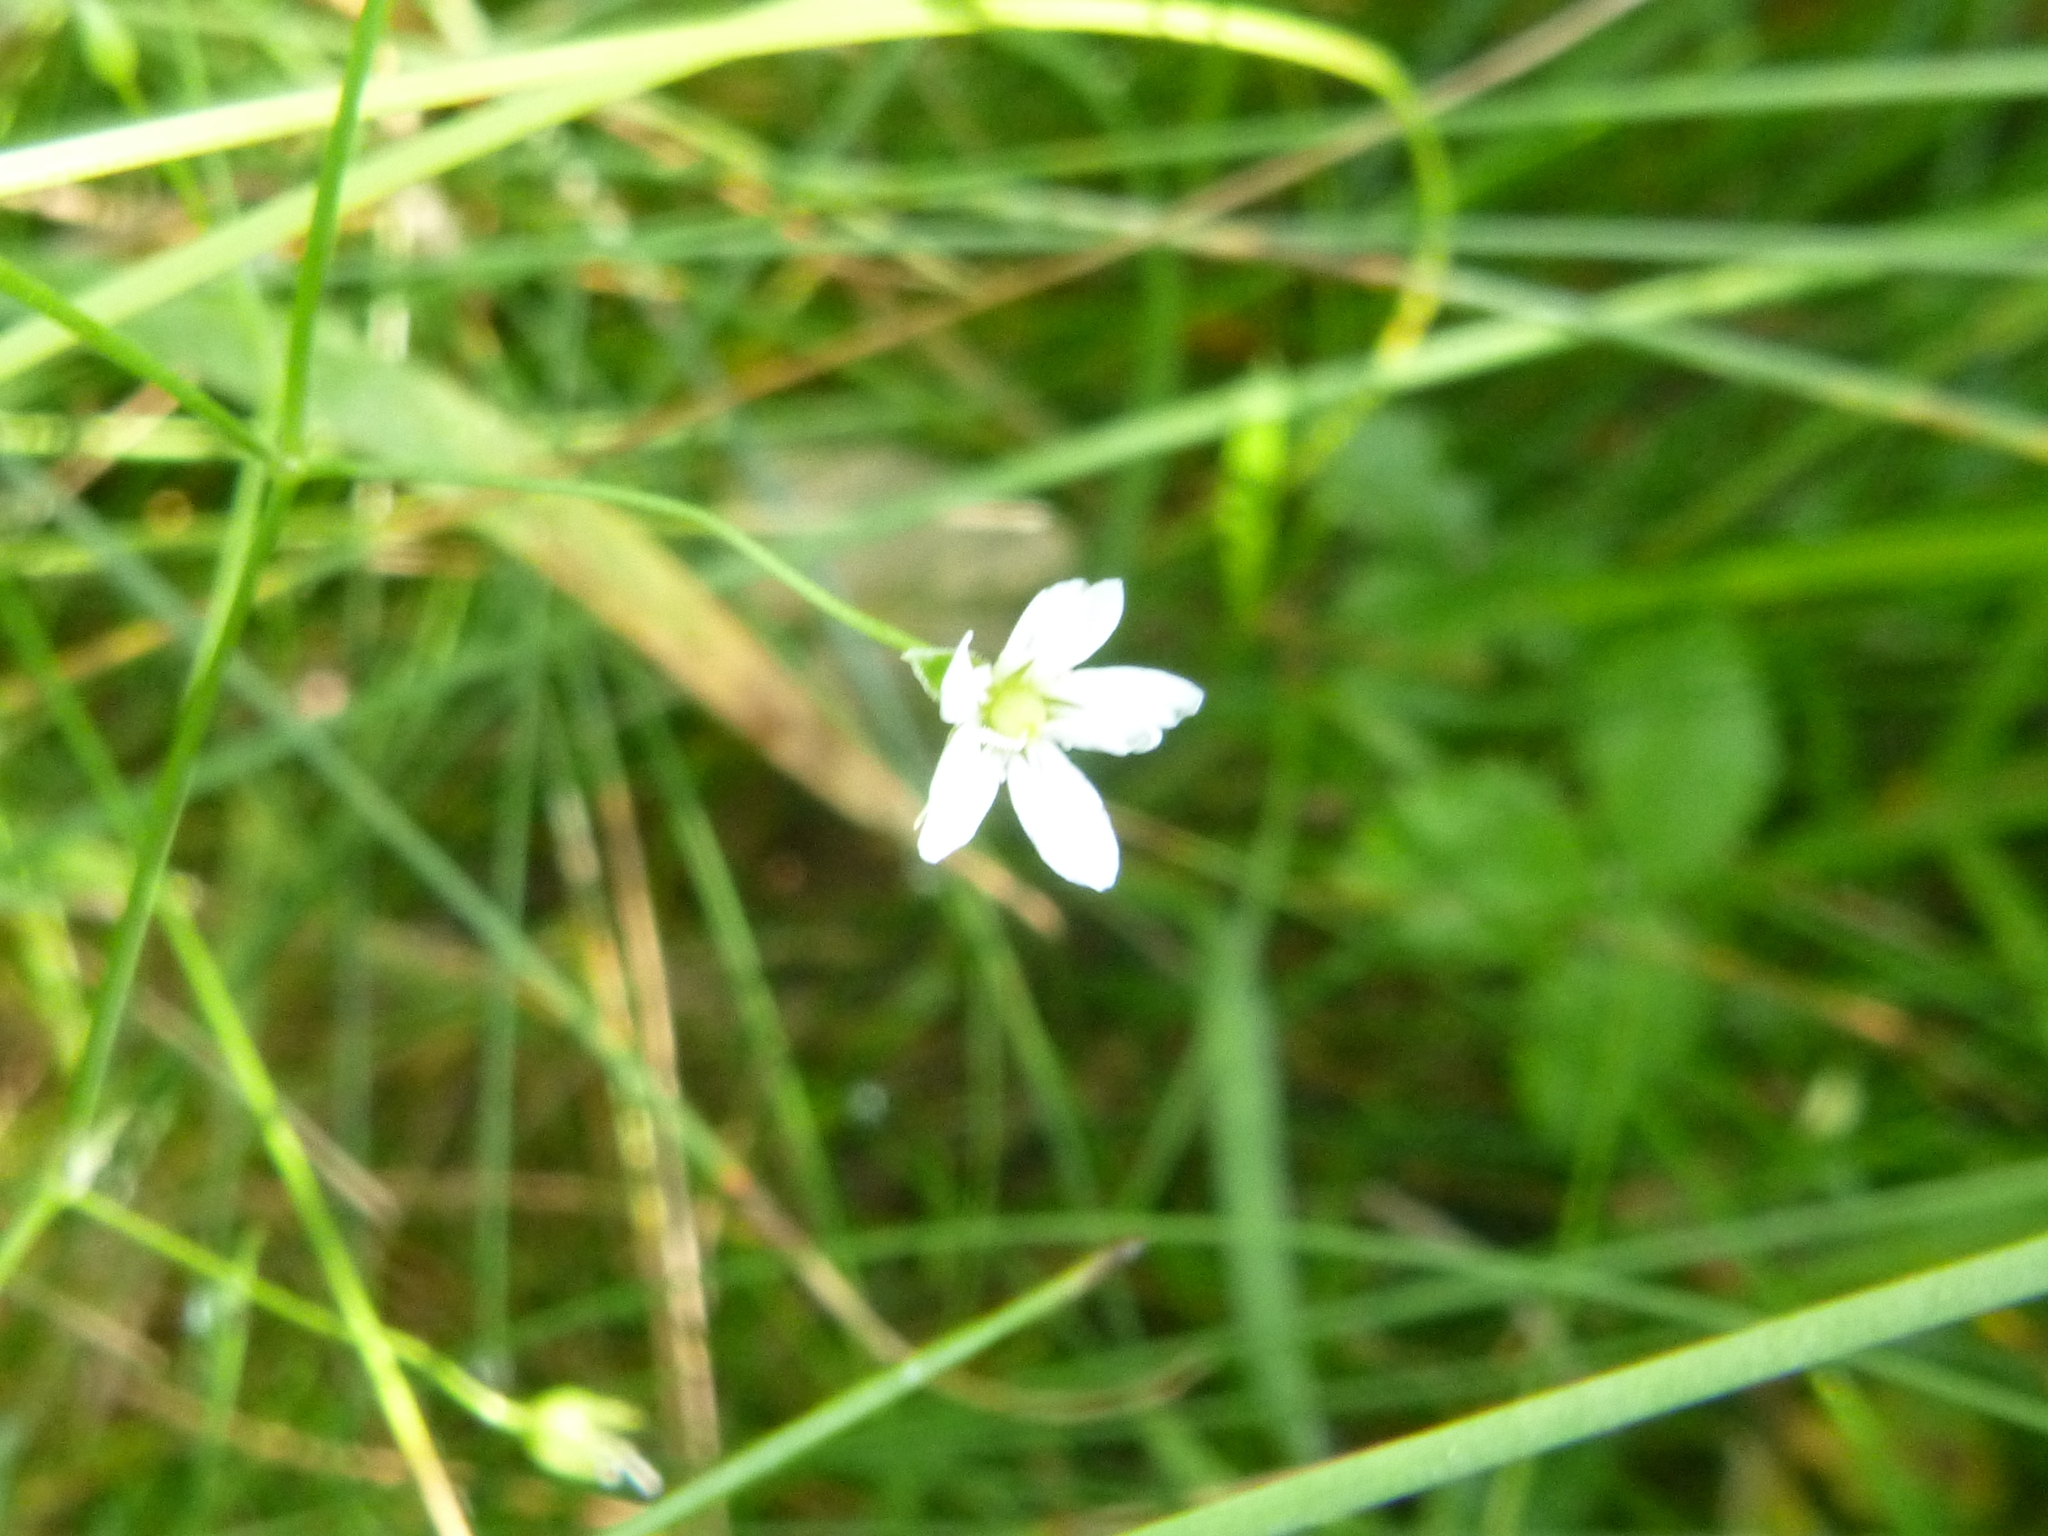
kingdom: Plantae
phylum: Tracheophyta
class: Magnoliopsida
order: Caryophyllales
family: Caryophyllaceae
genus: Stellaria
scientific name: Stellaria graminea
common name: Grass-like starwort
